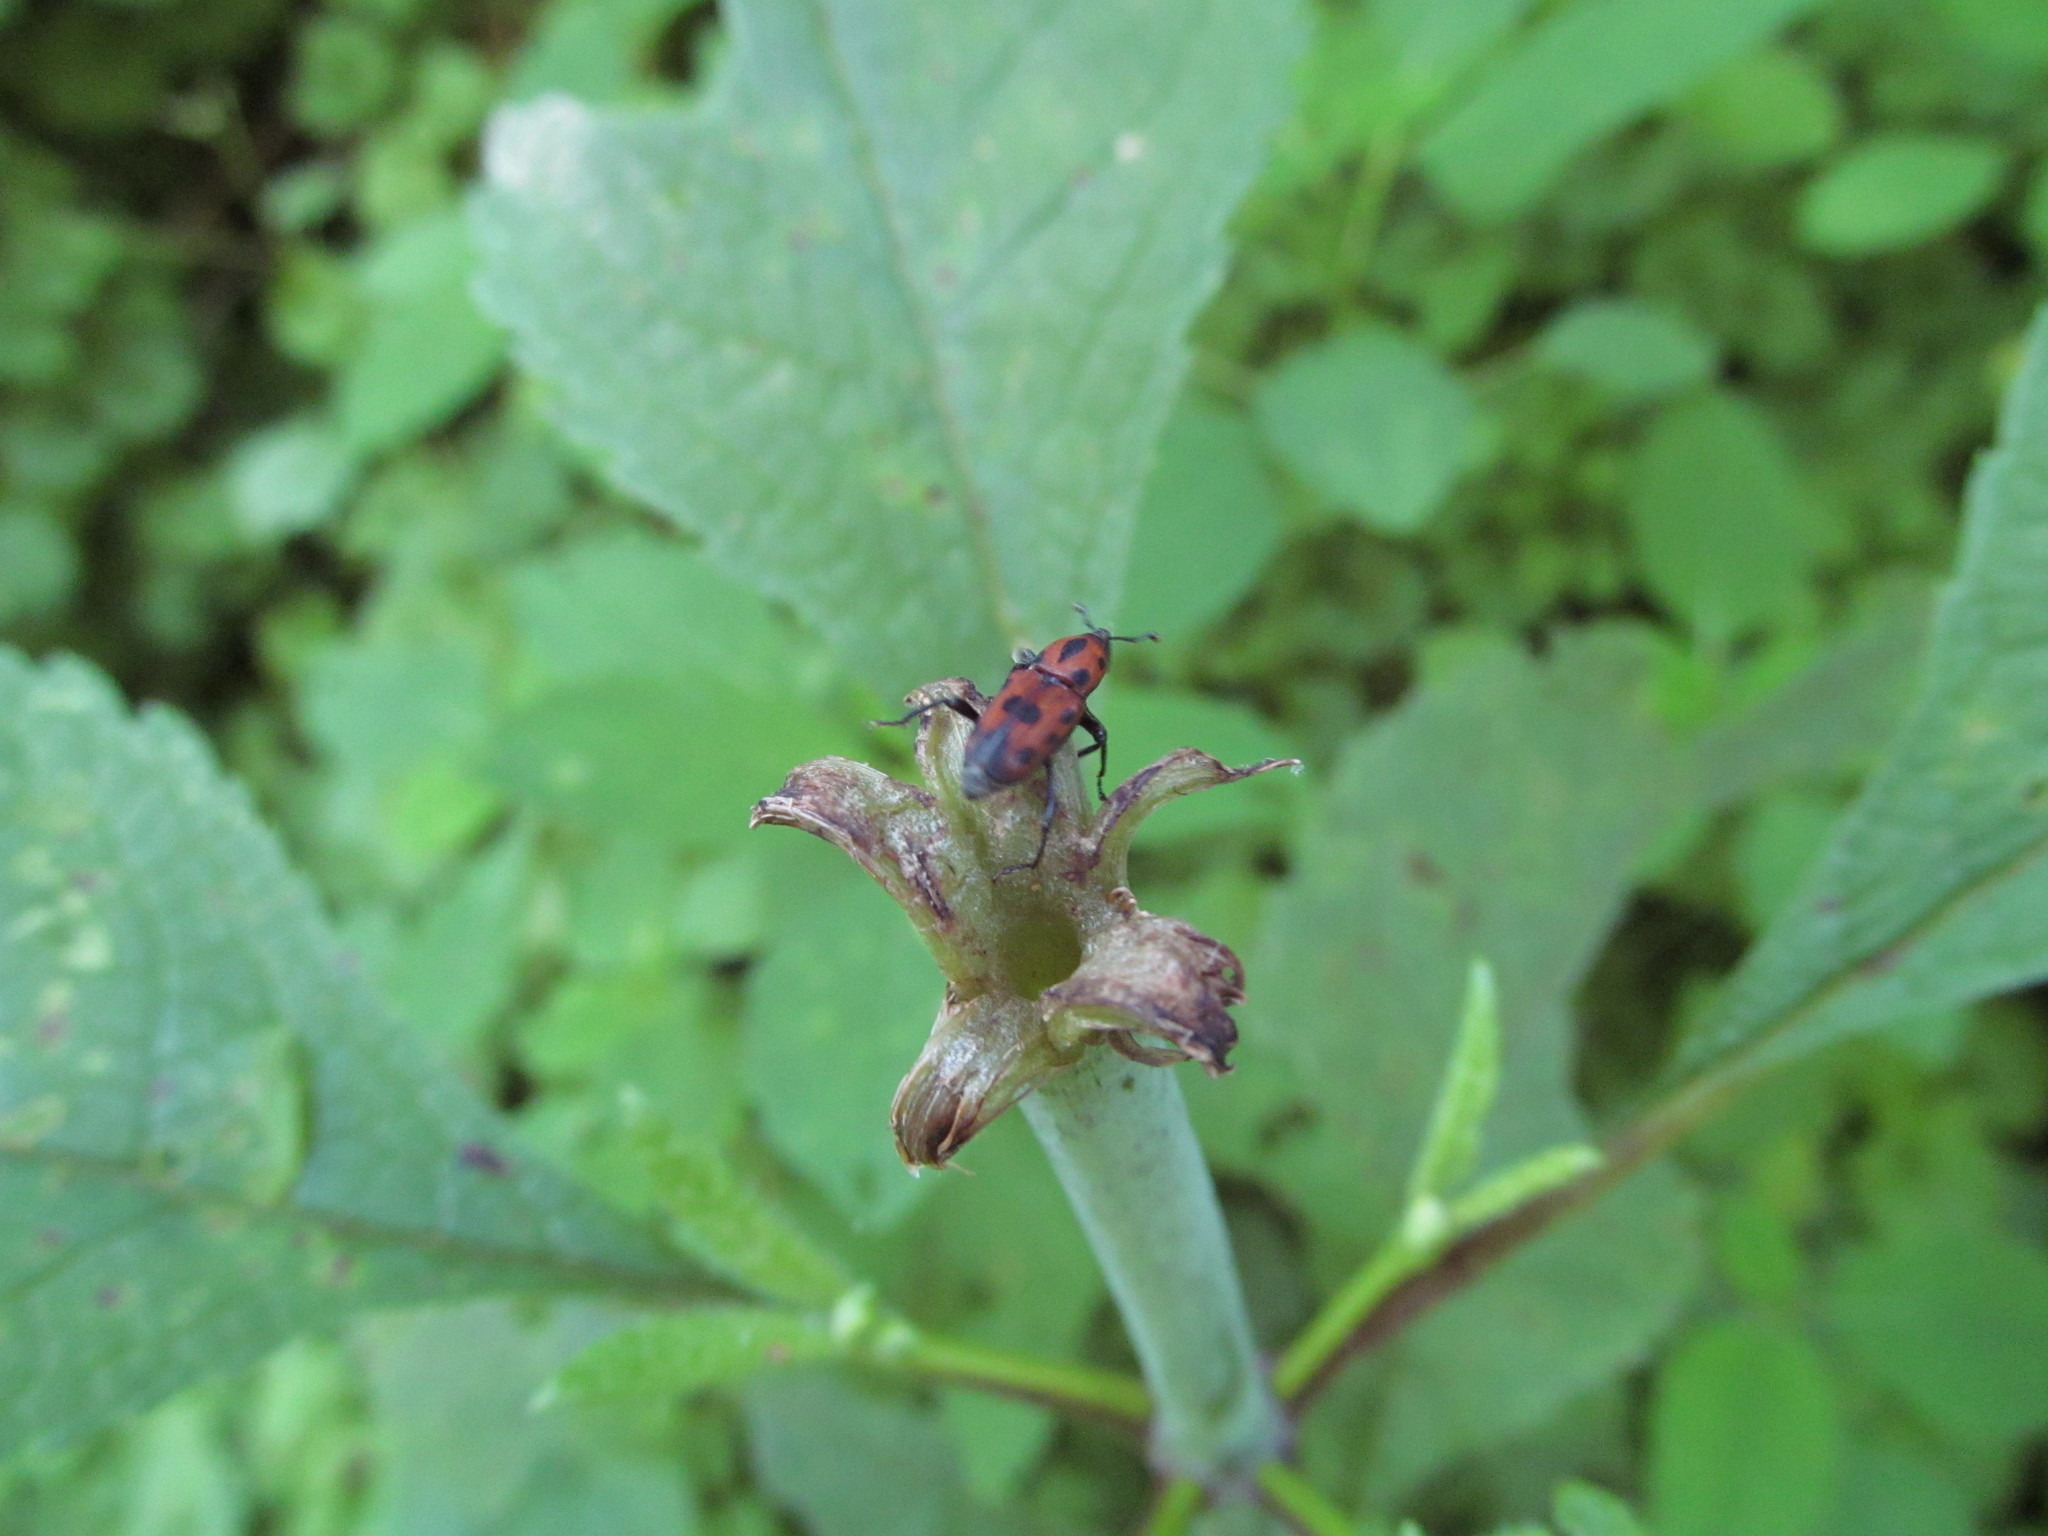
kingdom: Animalia
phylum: Arthropoda
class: Insecta
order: Coleoptera
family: Dryophthoridae
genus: Rhodobaenus
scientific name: Rhodobaenus quinquepunctatus
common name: Cocklebur weevil
